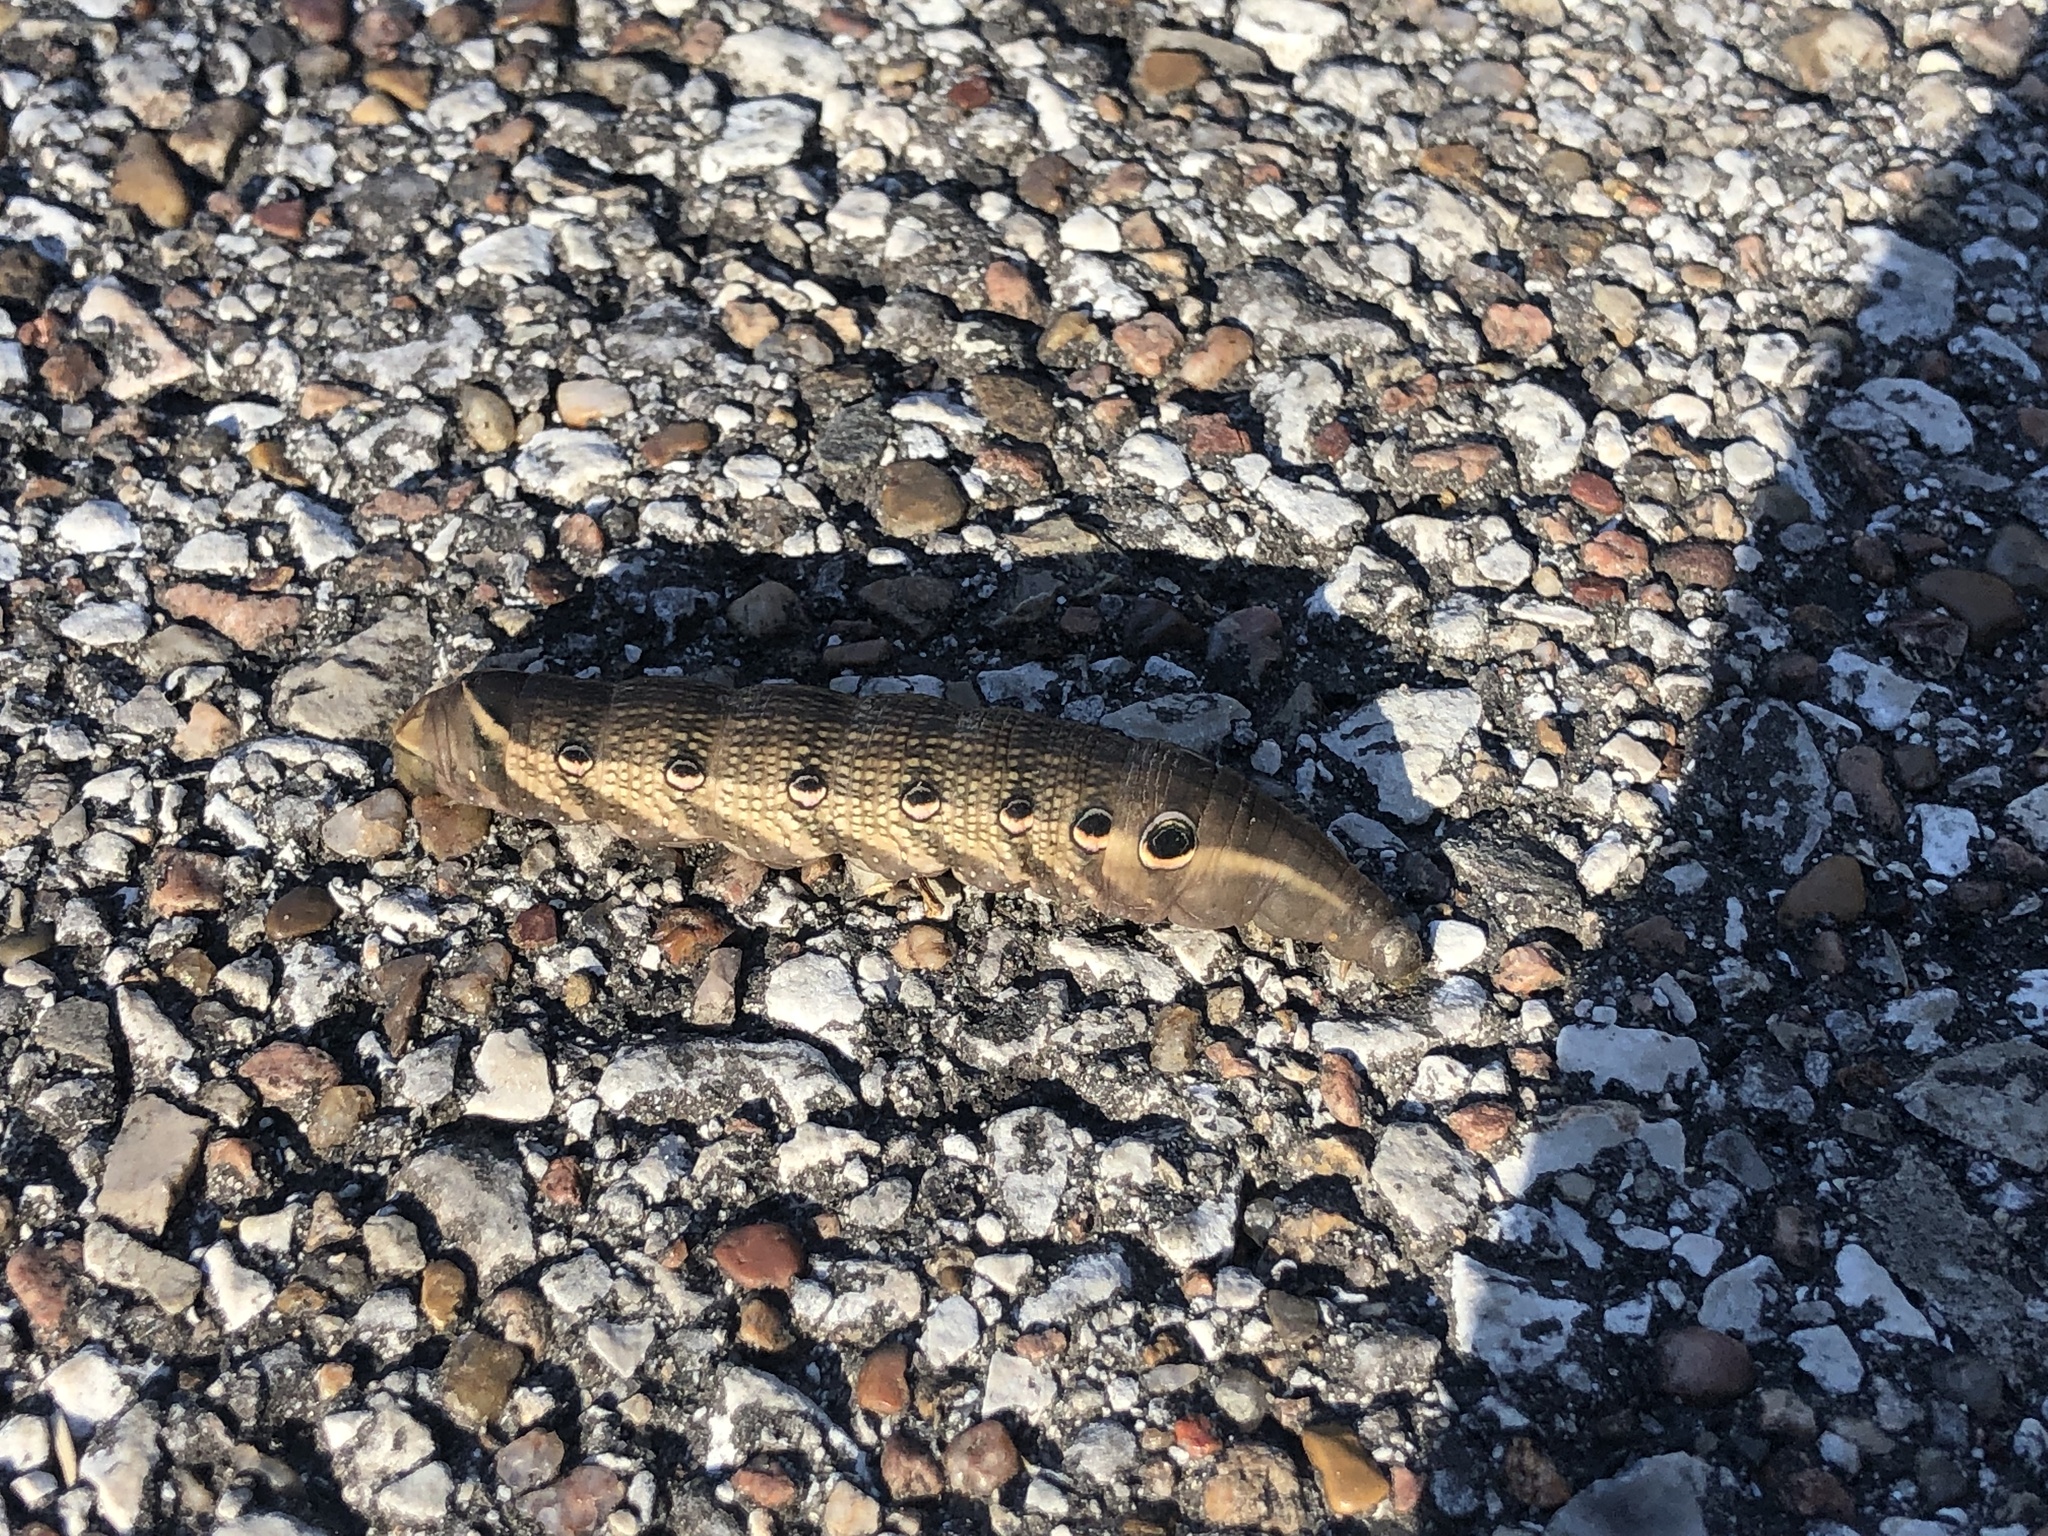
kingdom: Animalia
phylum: Arthropoda
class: Insecta
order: Lepidoptera
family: Sphingidae
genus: Xylophanes
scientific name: Xylophanes tersa
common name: Tersa sphinx
